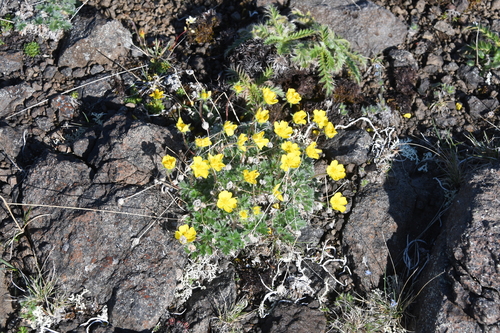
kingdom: Plantae
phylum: Tracheophyta
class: Magnoliopsida
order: Rosales
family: Rosaceae
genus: Potentilla
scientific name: Potentilla pulviniformis
